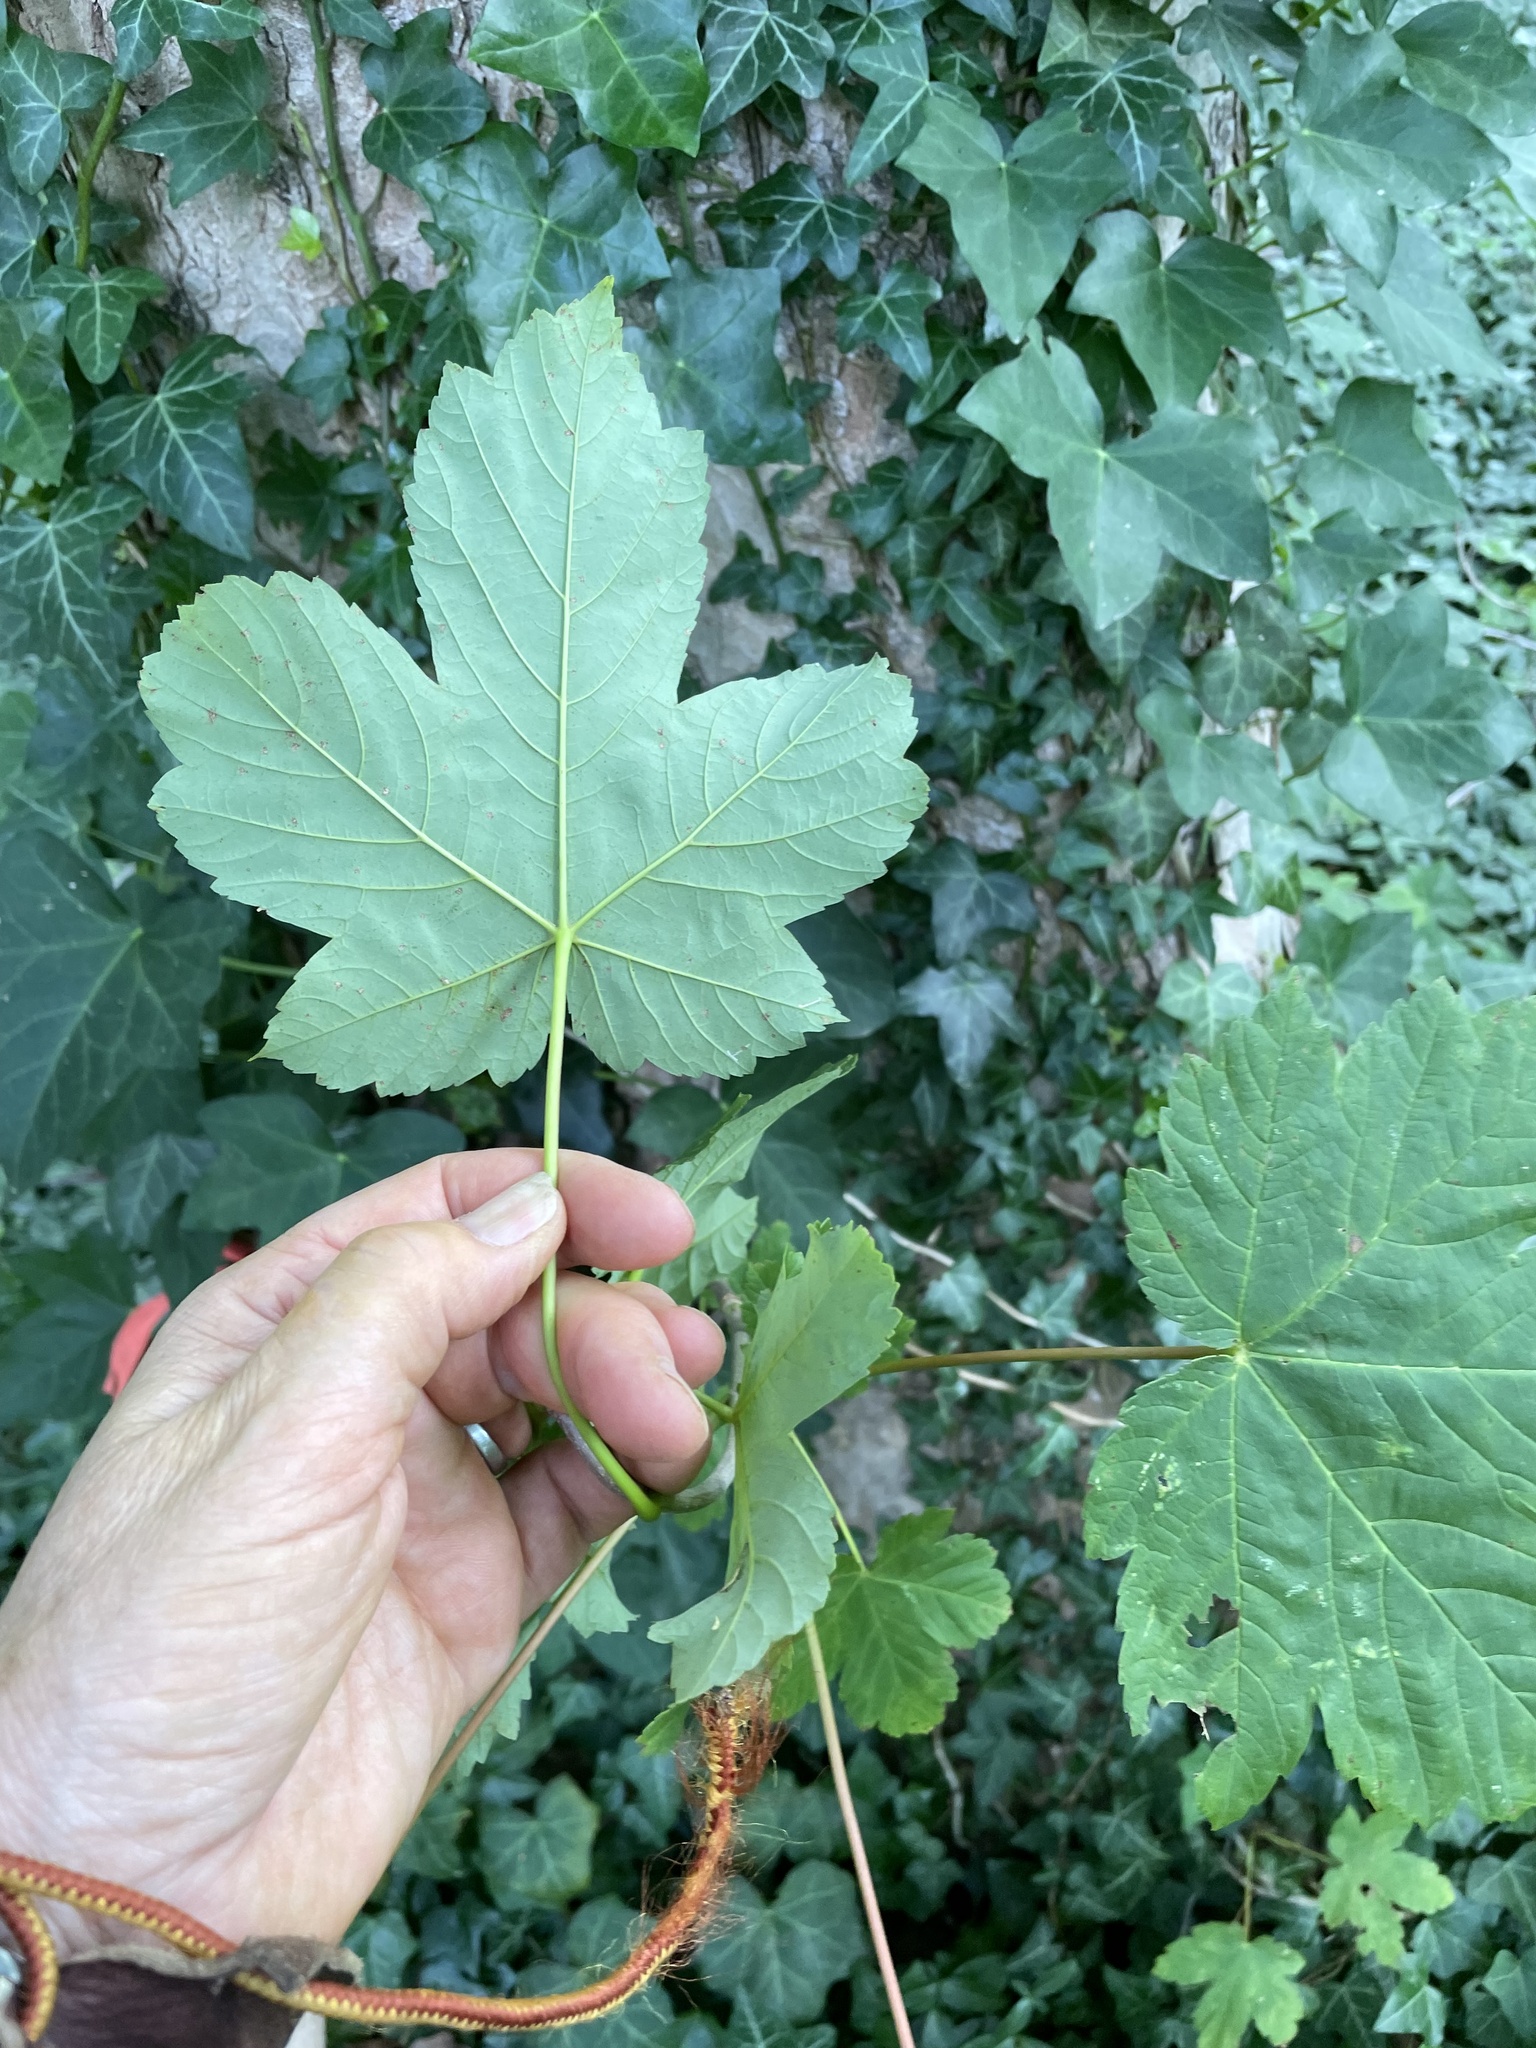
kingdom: Plantae
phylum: Tracheophyta
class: Magnoliopsida
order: Sapindales
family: Sapindaceae
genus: Acer
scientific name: Acer pseudoplatanus
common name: Sycamore
